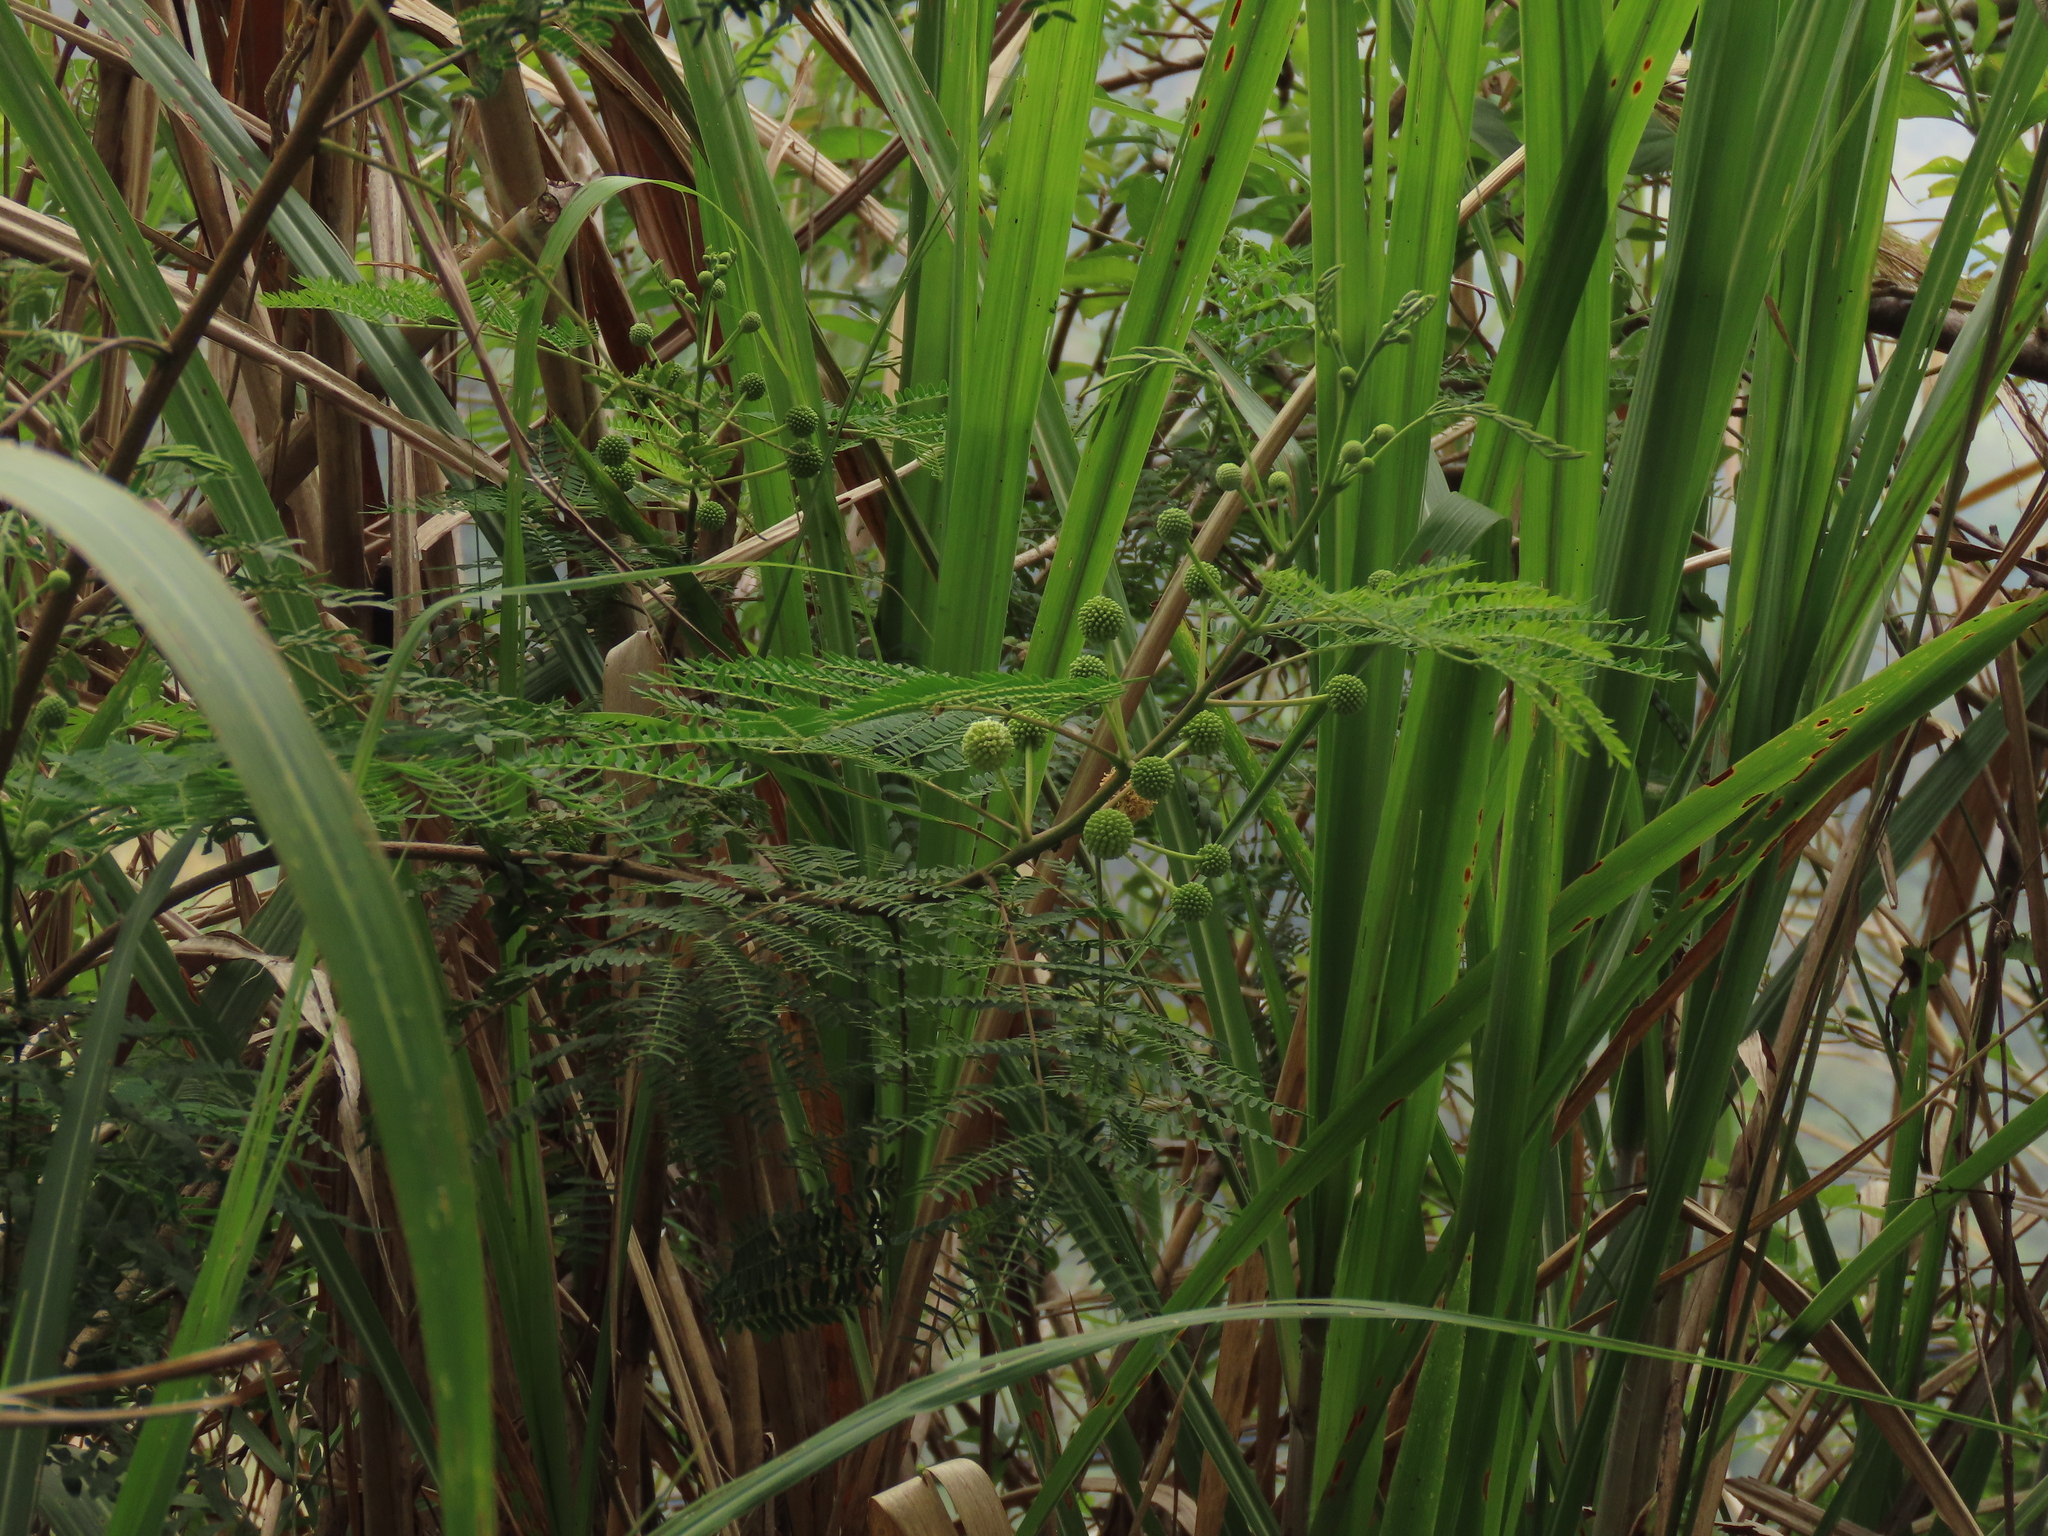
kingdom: Plantae
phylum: Tracheophyta
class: Magnoliopsida
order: Fabales
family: Fabaceae
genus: Leucaena
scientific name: Leucaena leucocephala
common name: White leadtree
